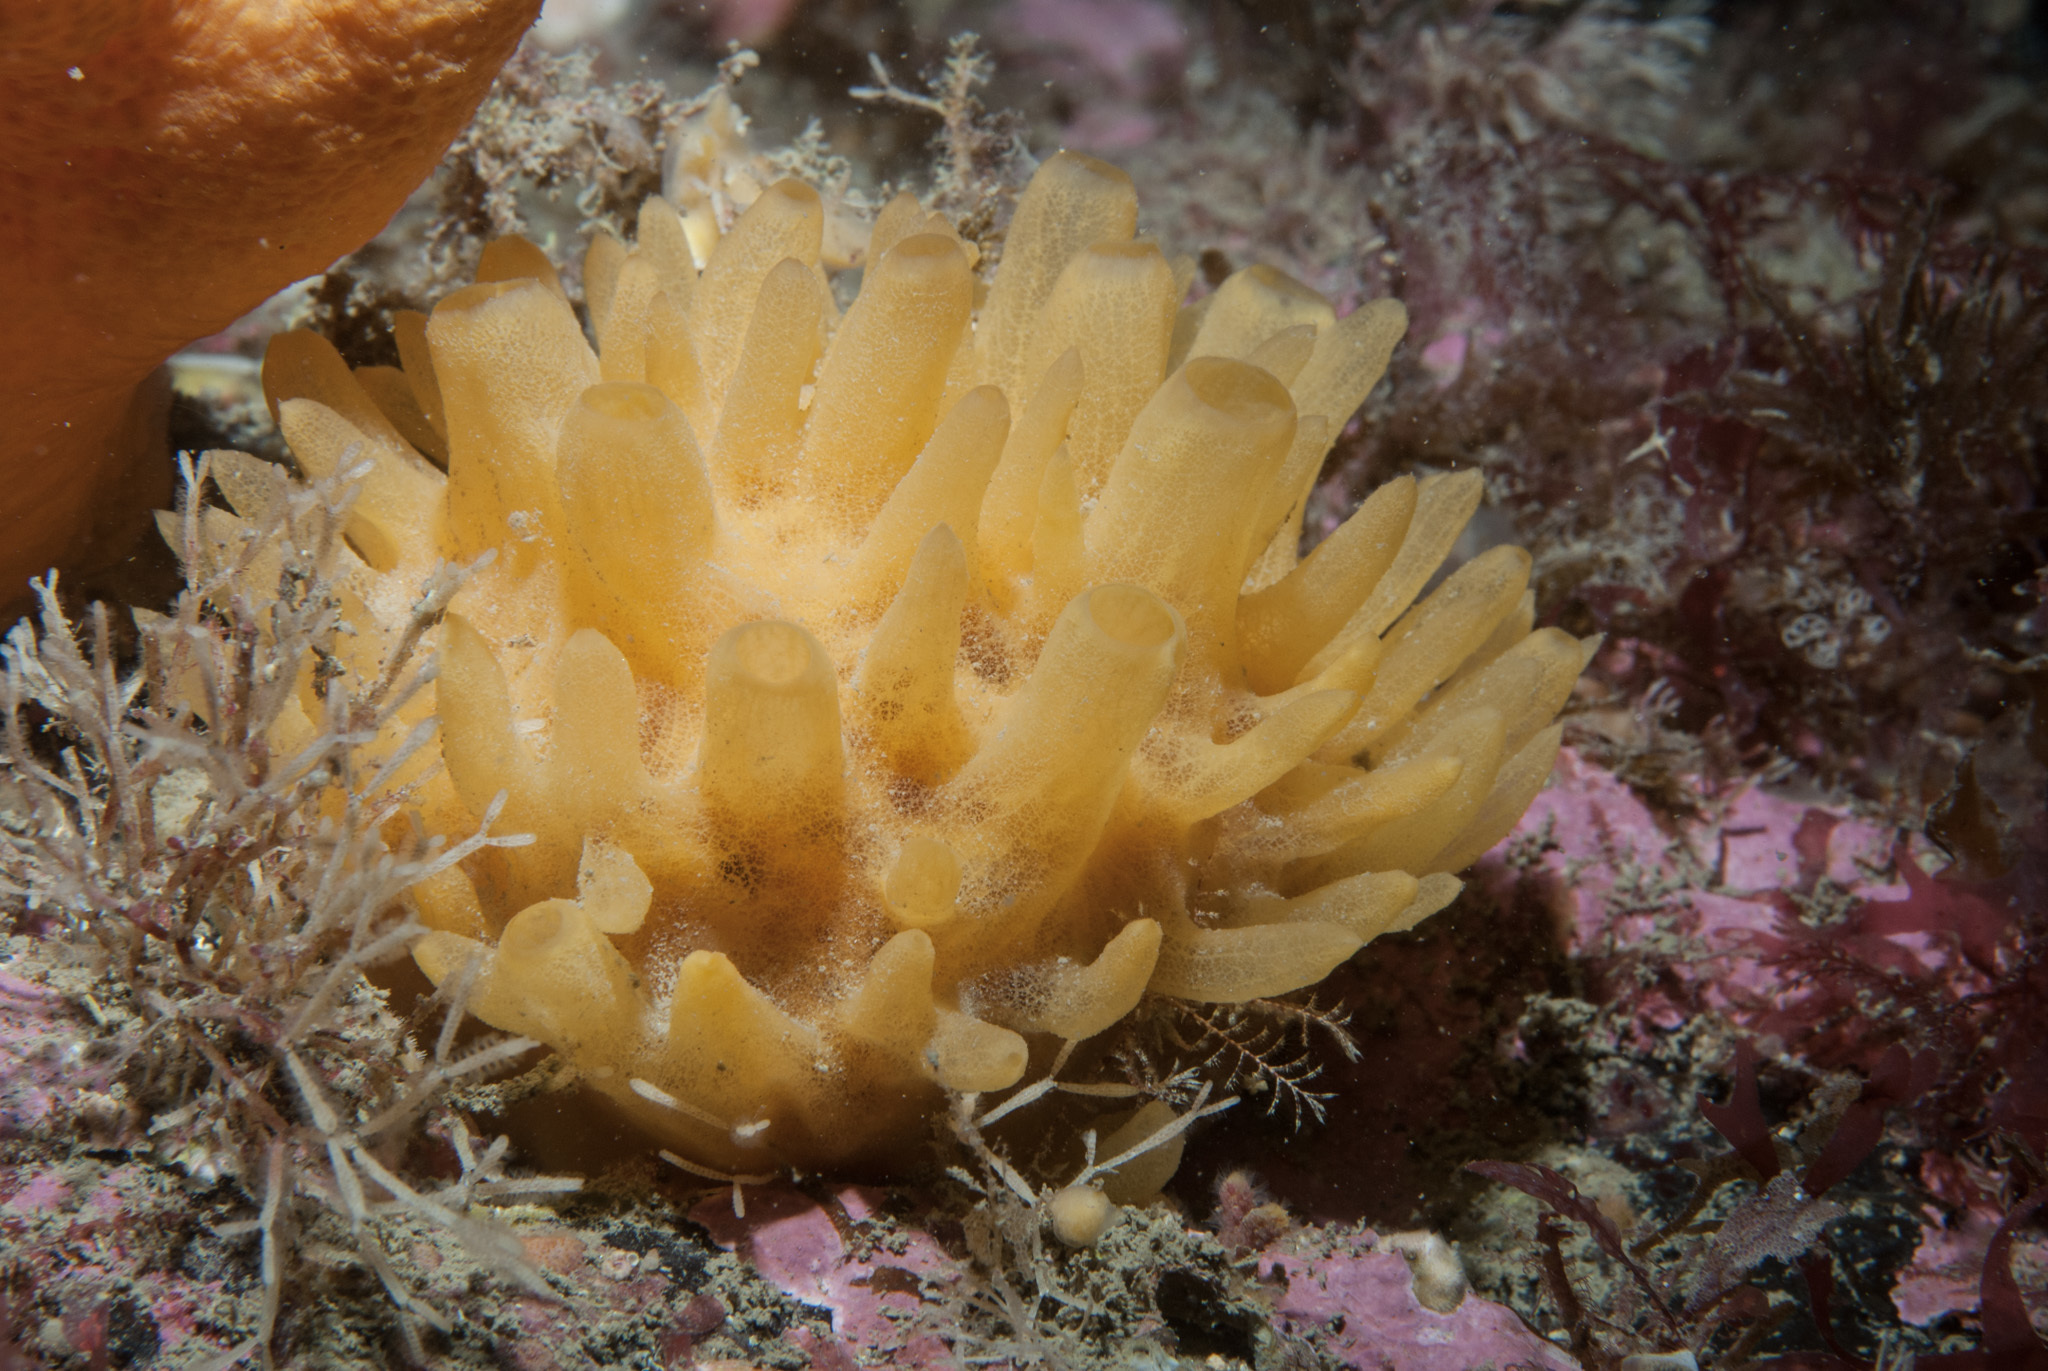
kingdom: Animalia
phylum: Porifera
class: Demospongiae
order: Polymastiida
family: Polymastiidae
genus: Polymastia
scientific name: Polymastia boletiformis
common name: Massive horny sponge
